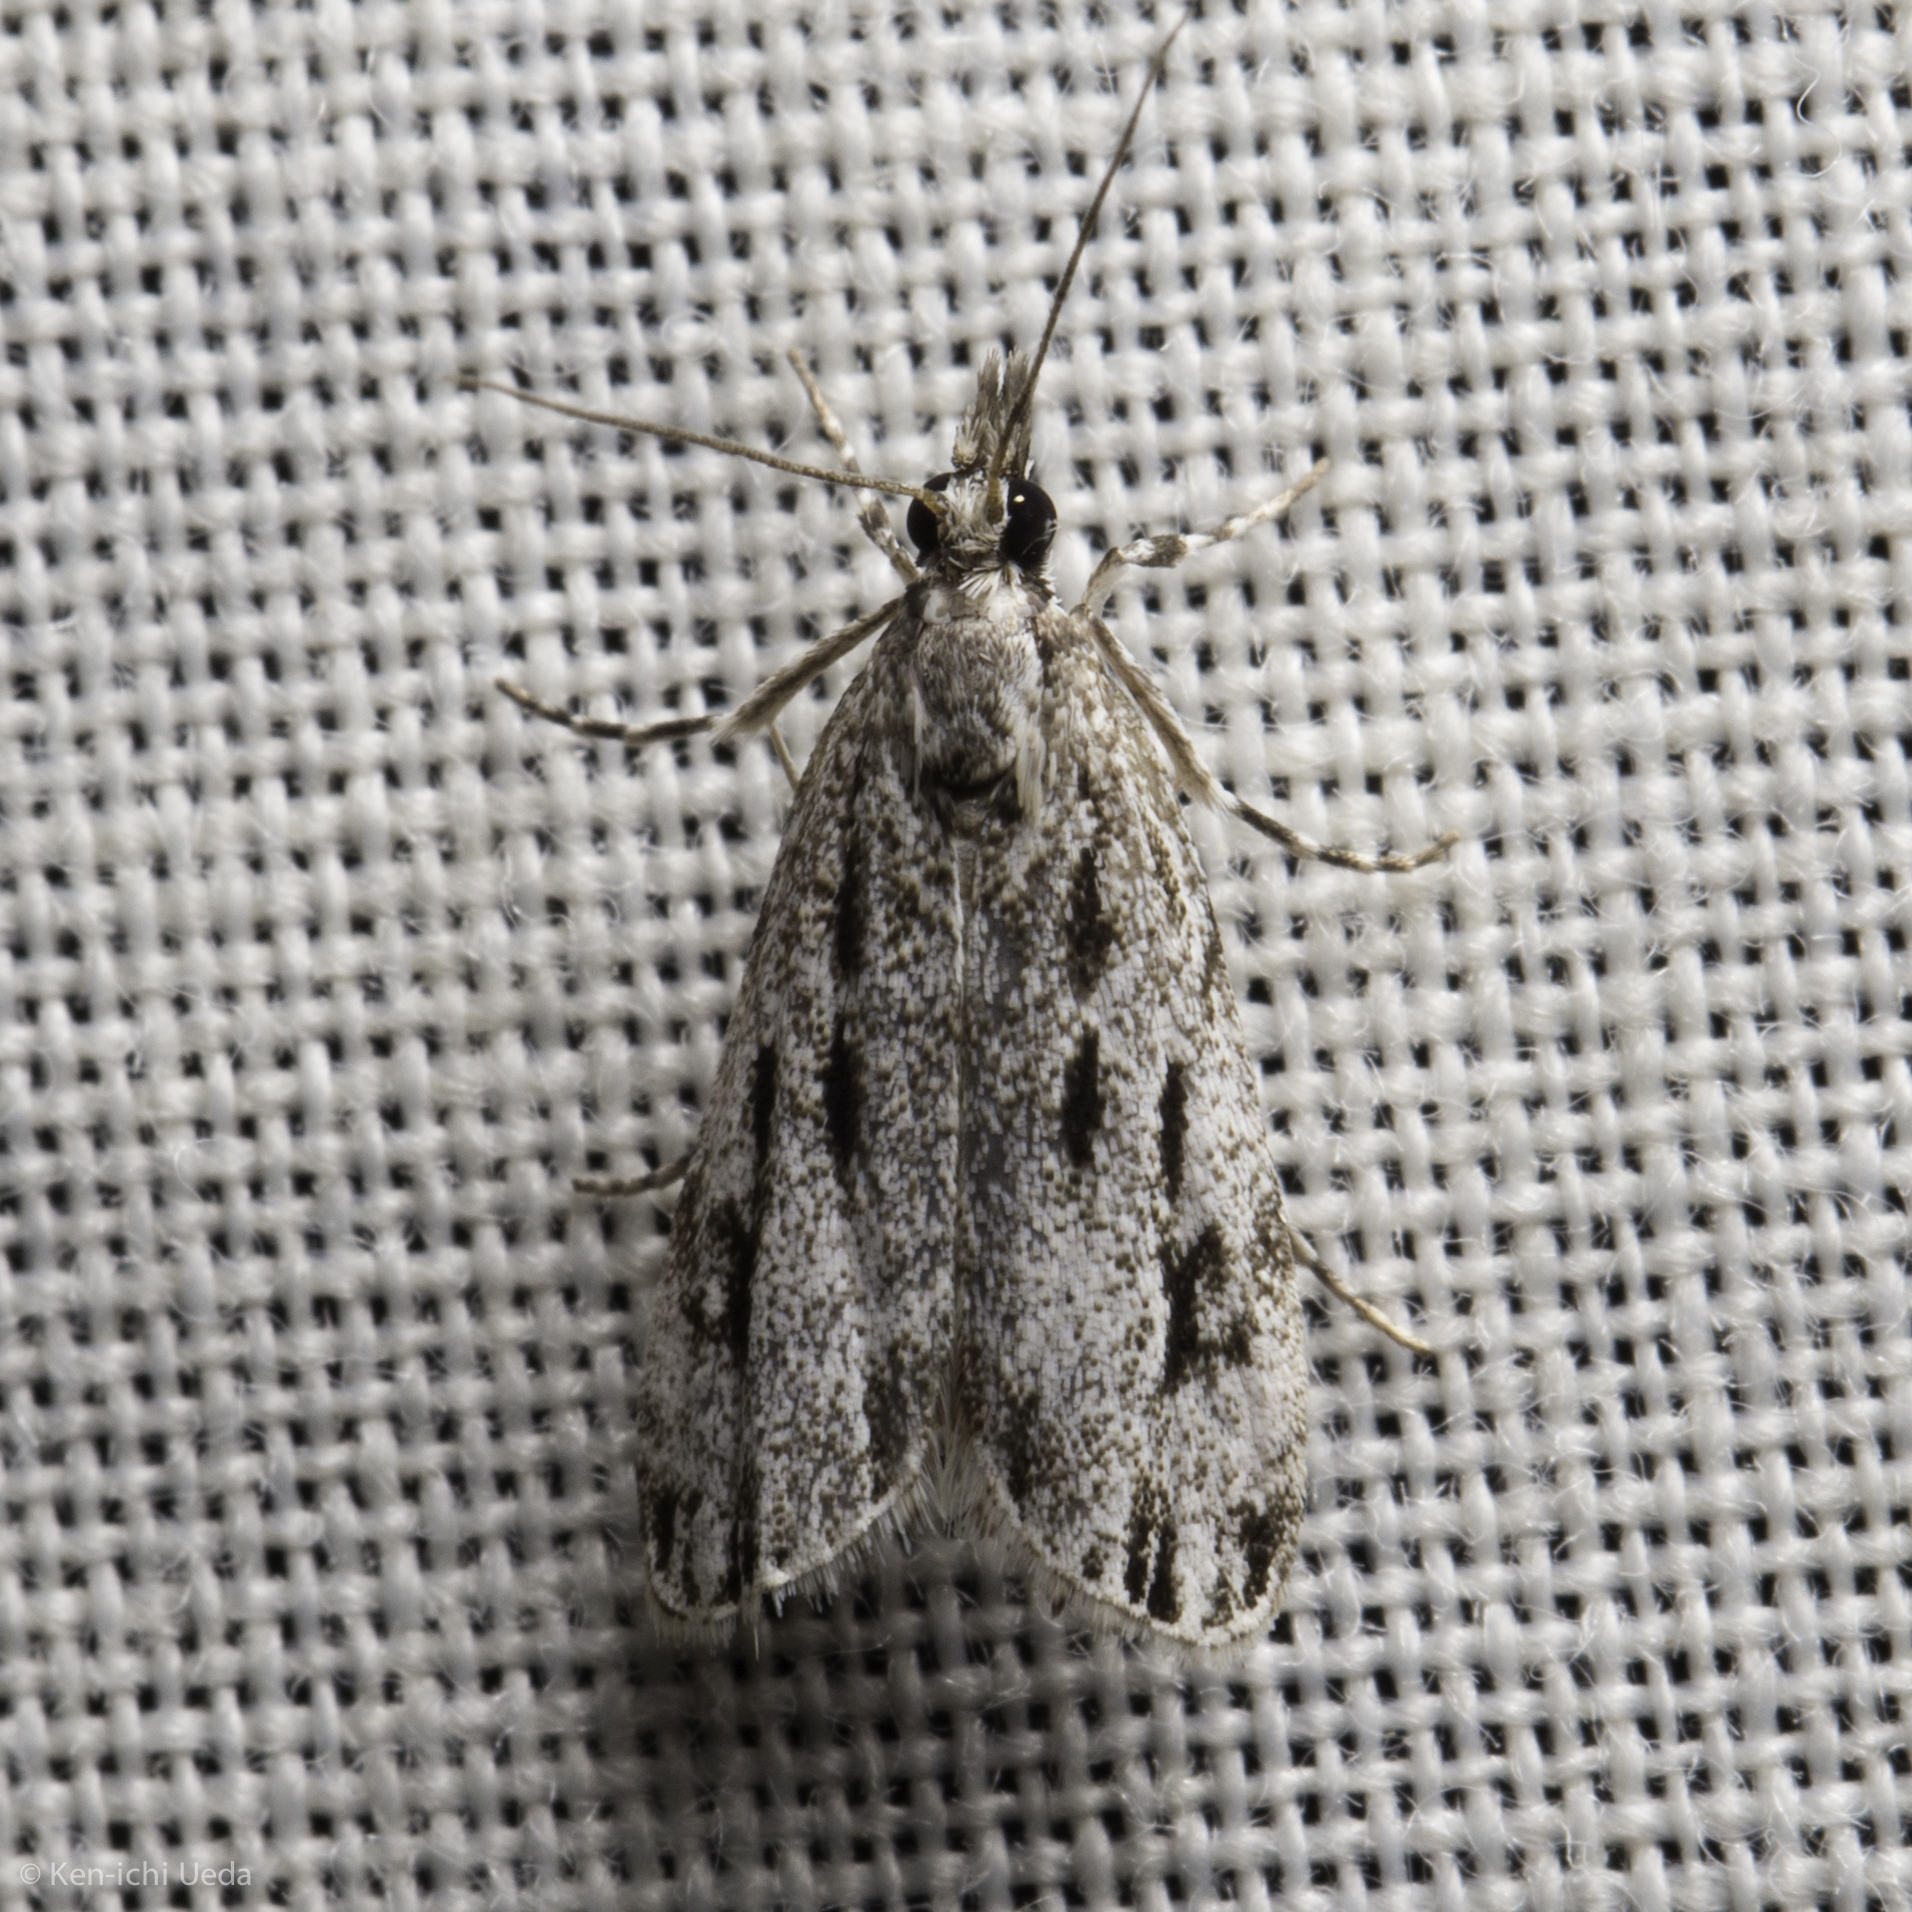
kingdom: Animalia
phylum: Arthropoda
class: Insecta
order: Lepidoptera
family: Crambidae
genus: Eudonia
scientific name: Eudonia strigalis
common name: Striped eudonia moth
